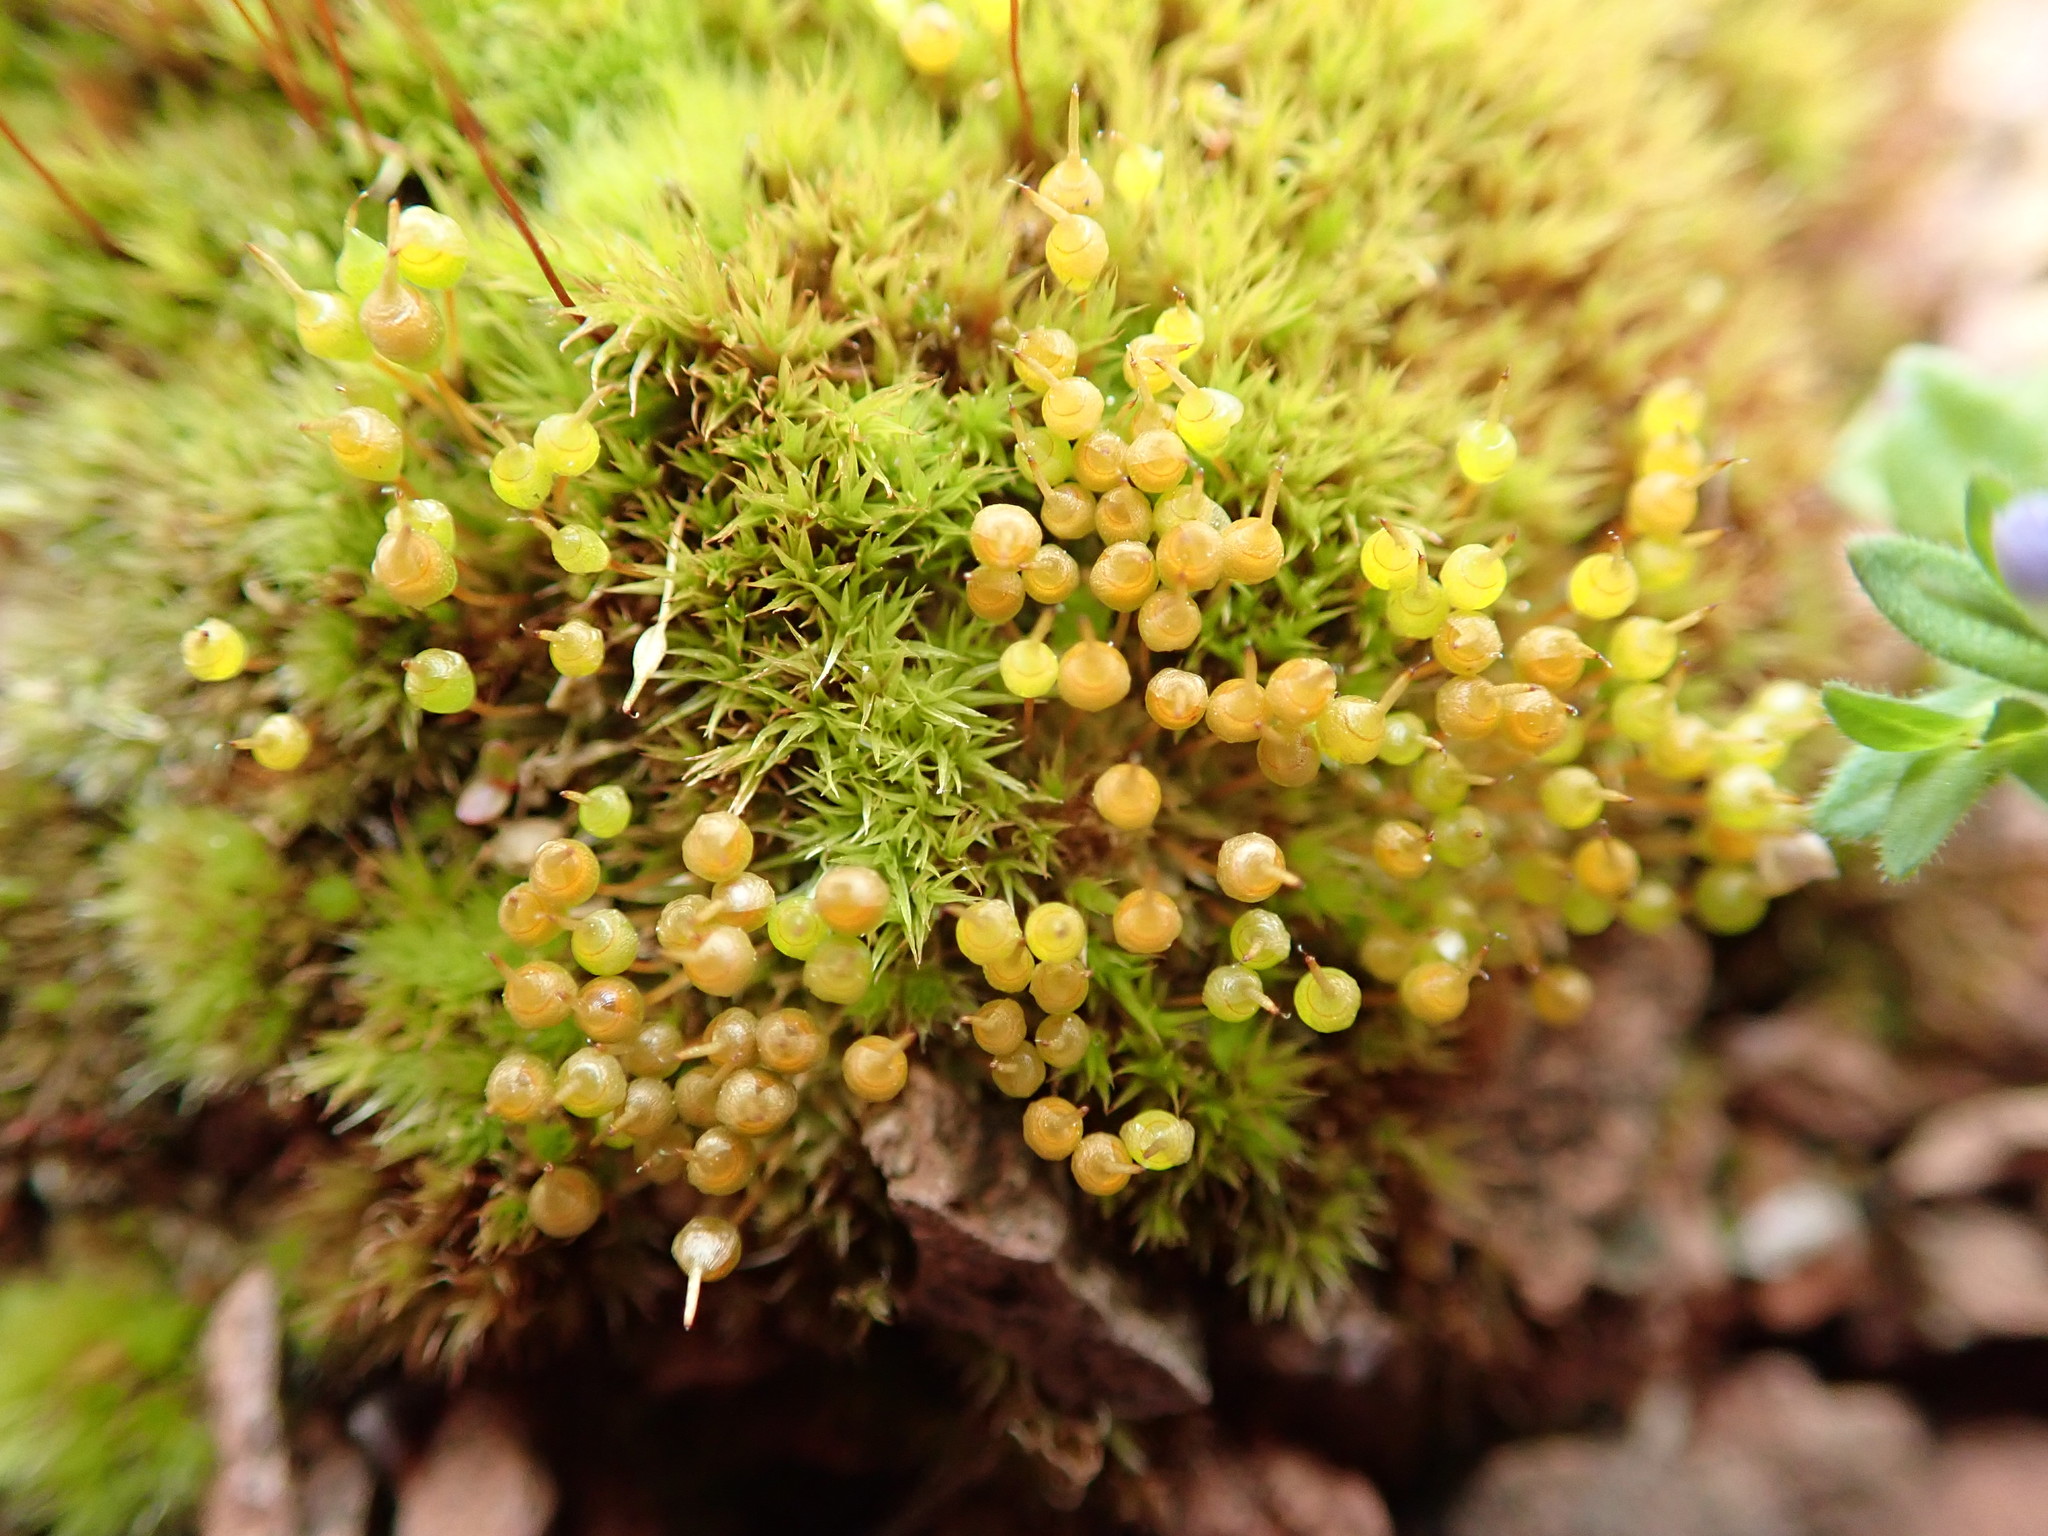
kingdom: Plantae
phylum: Bryophyta
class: Bryopsida
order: Funariales
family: Funariaceae
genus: Physcomitrium
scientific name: Physcomitrium pyriforme
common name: Common bladder-moss
